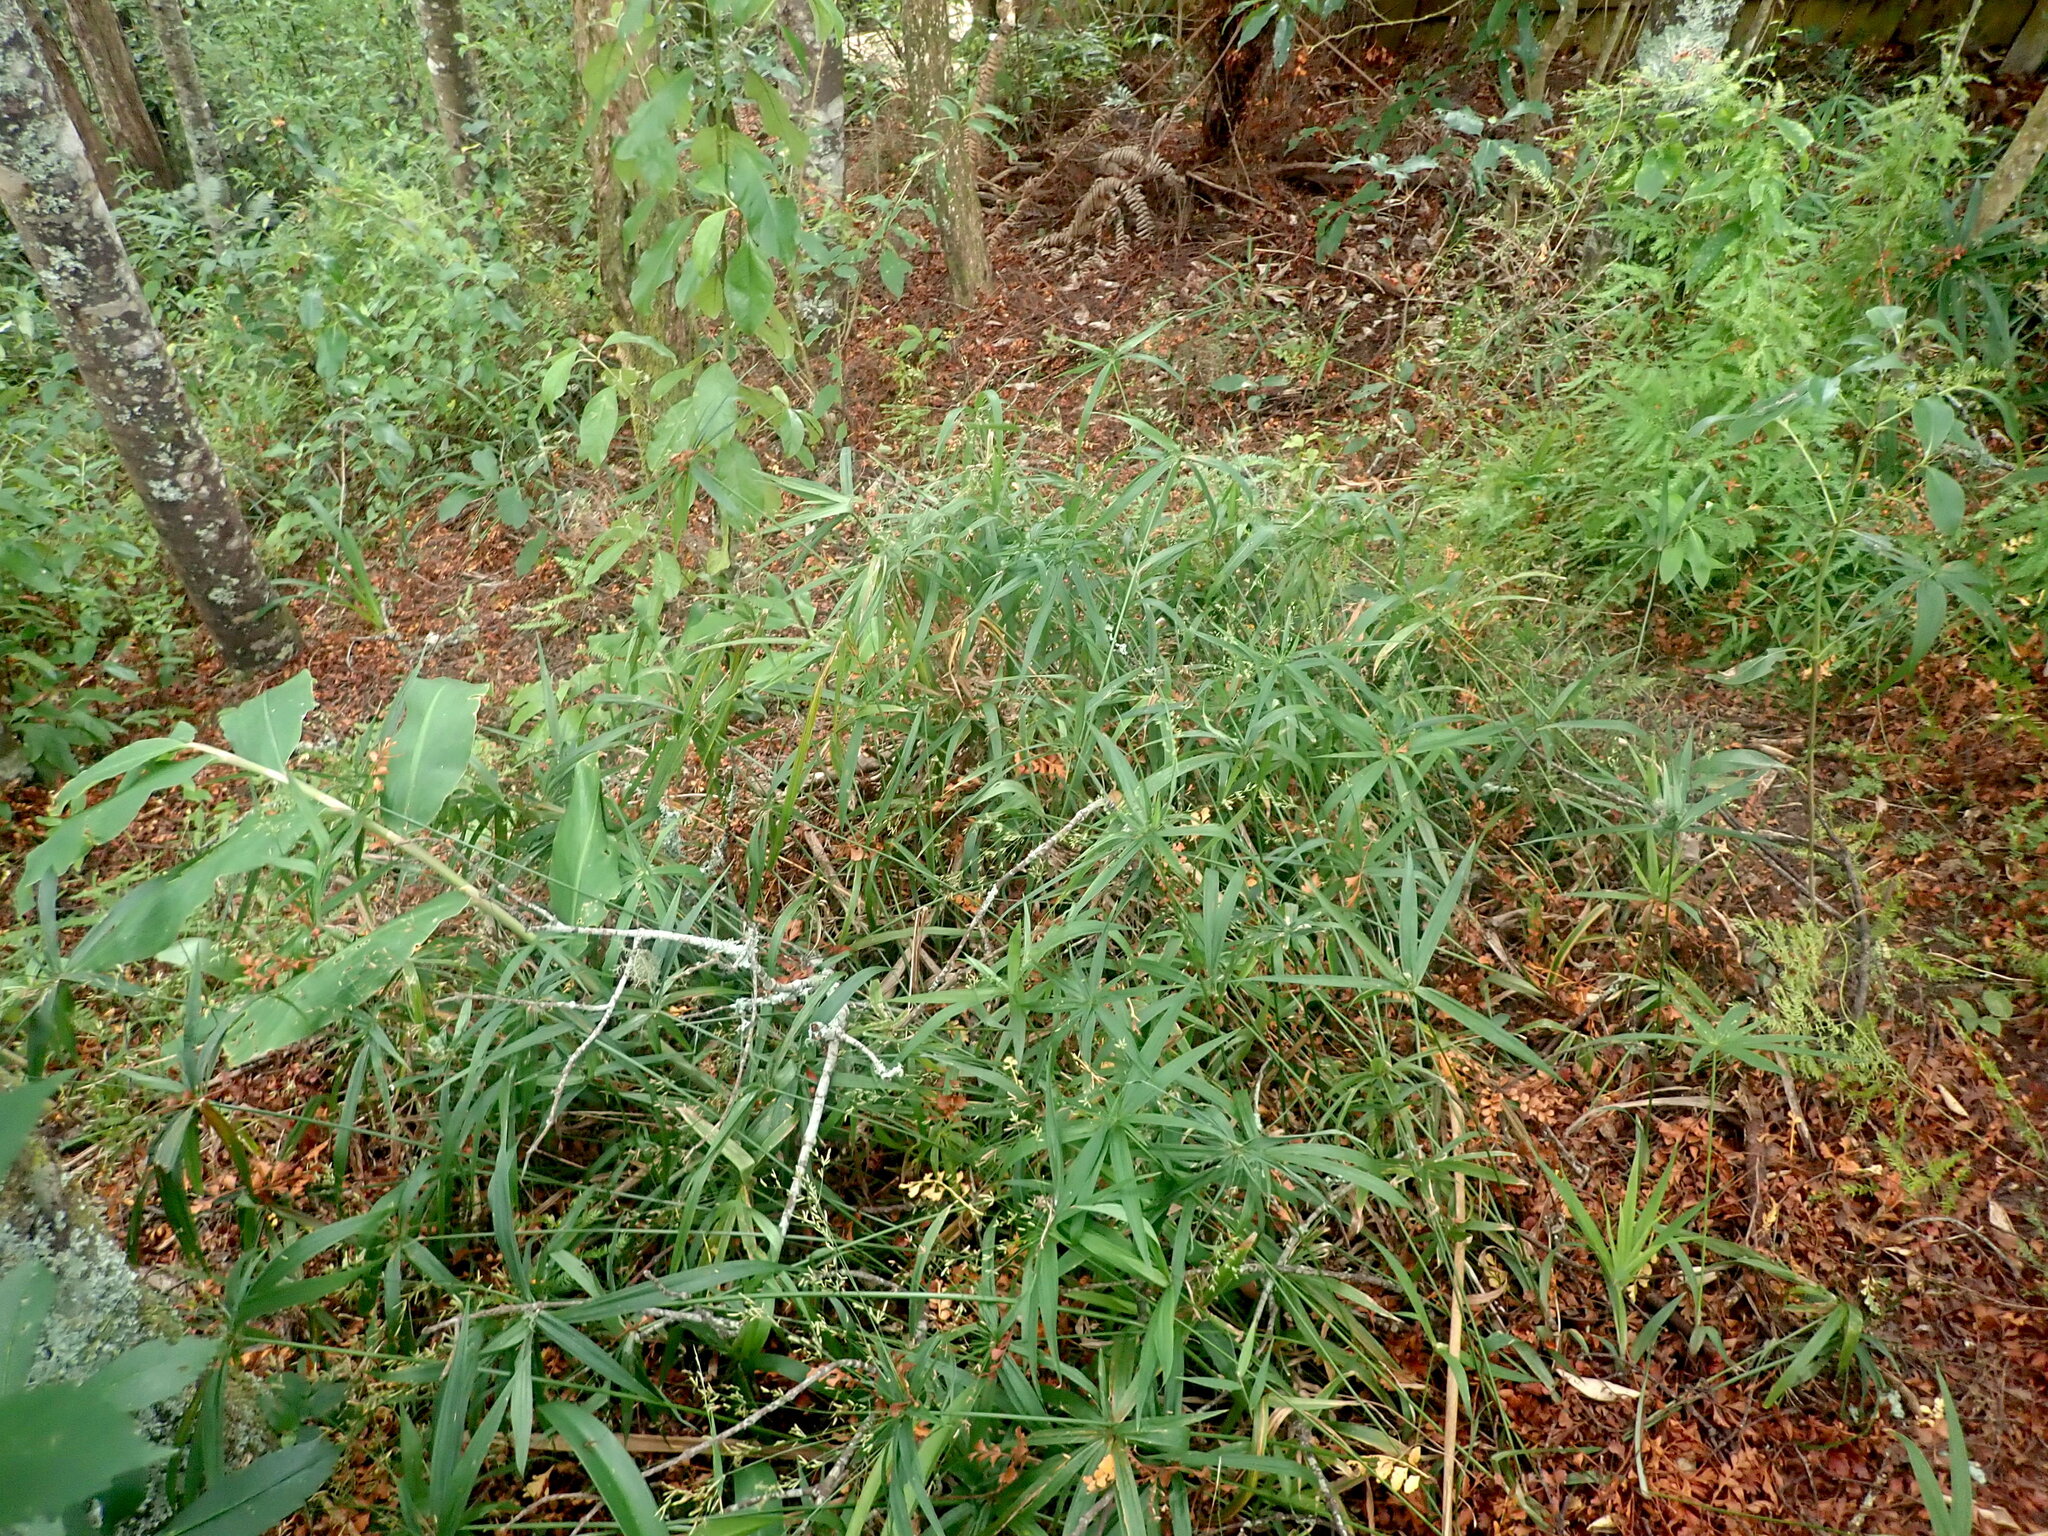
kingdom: Plantae
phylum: Tracheophyta
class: Liliopsida
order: Poales
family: Cyperaceae
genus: Cyperus
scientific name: Cyperus albostriatus
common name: Dwarf umbrella-grass
